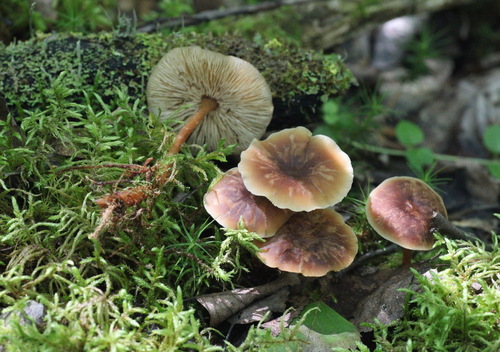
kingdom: Fungi
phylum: Basidiomycota
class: Agaricomycetes
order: Agaricales
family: Omphalotaceae
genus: Gymnopus
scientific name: Gymnopus ocior
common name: Spring toughshank
